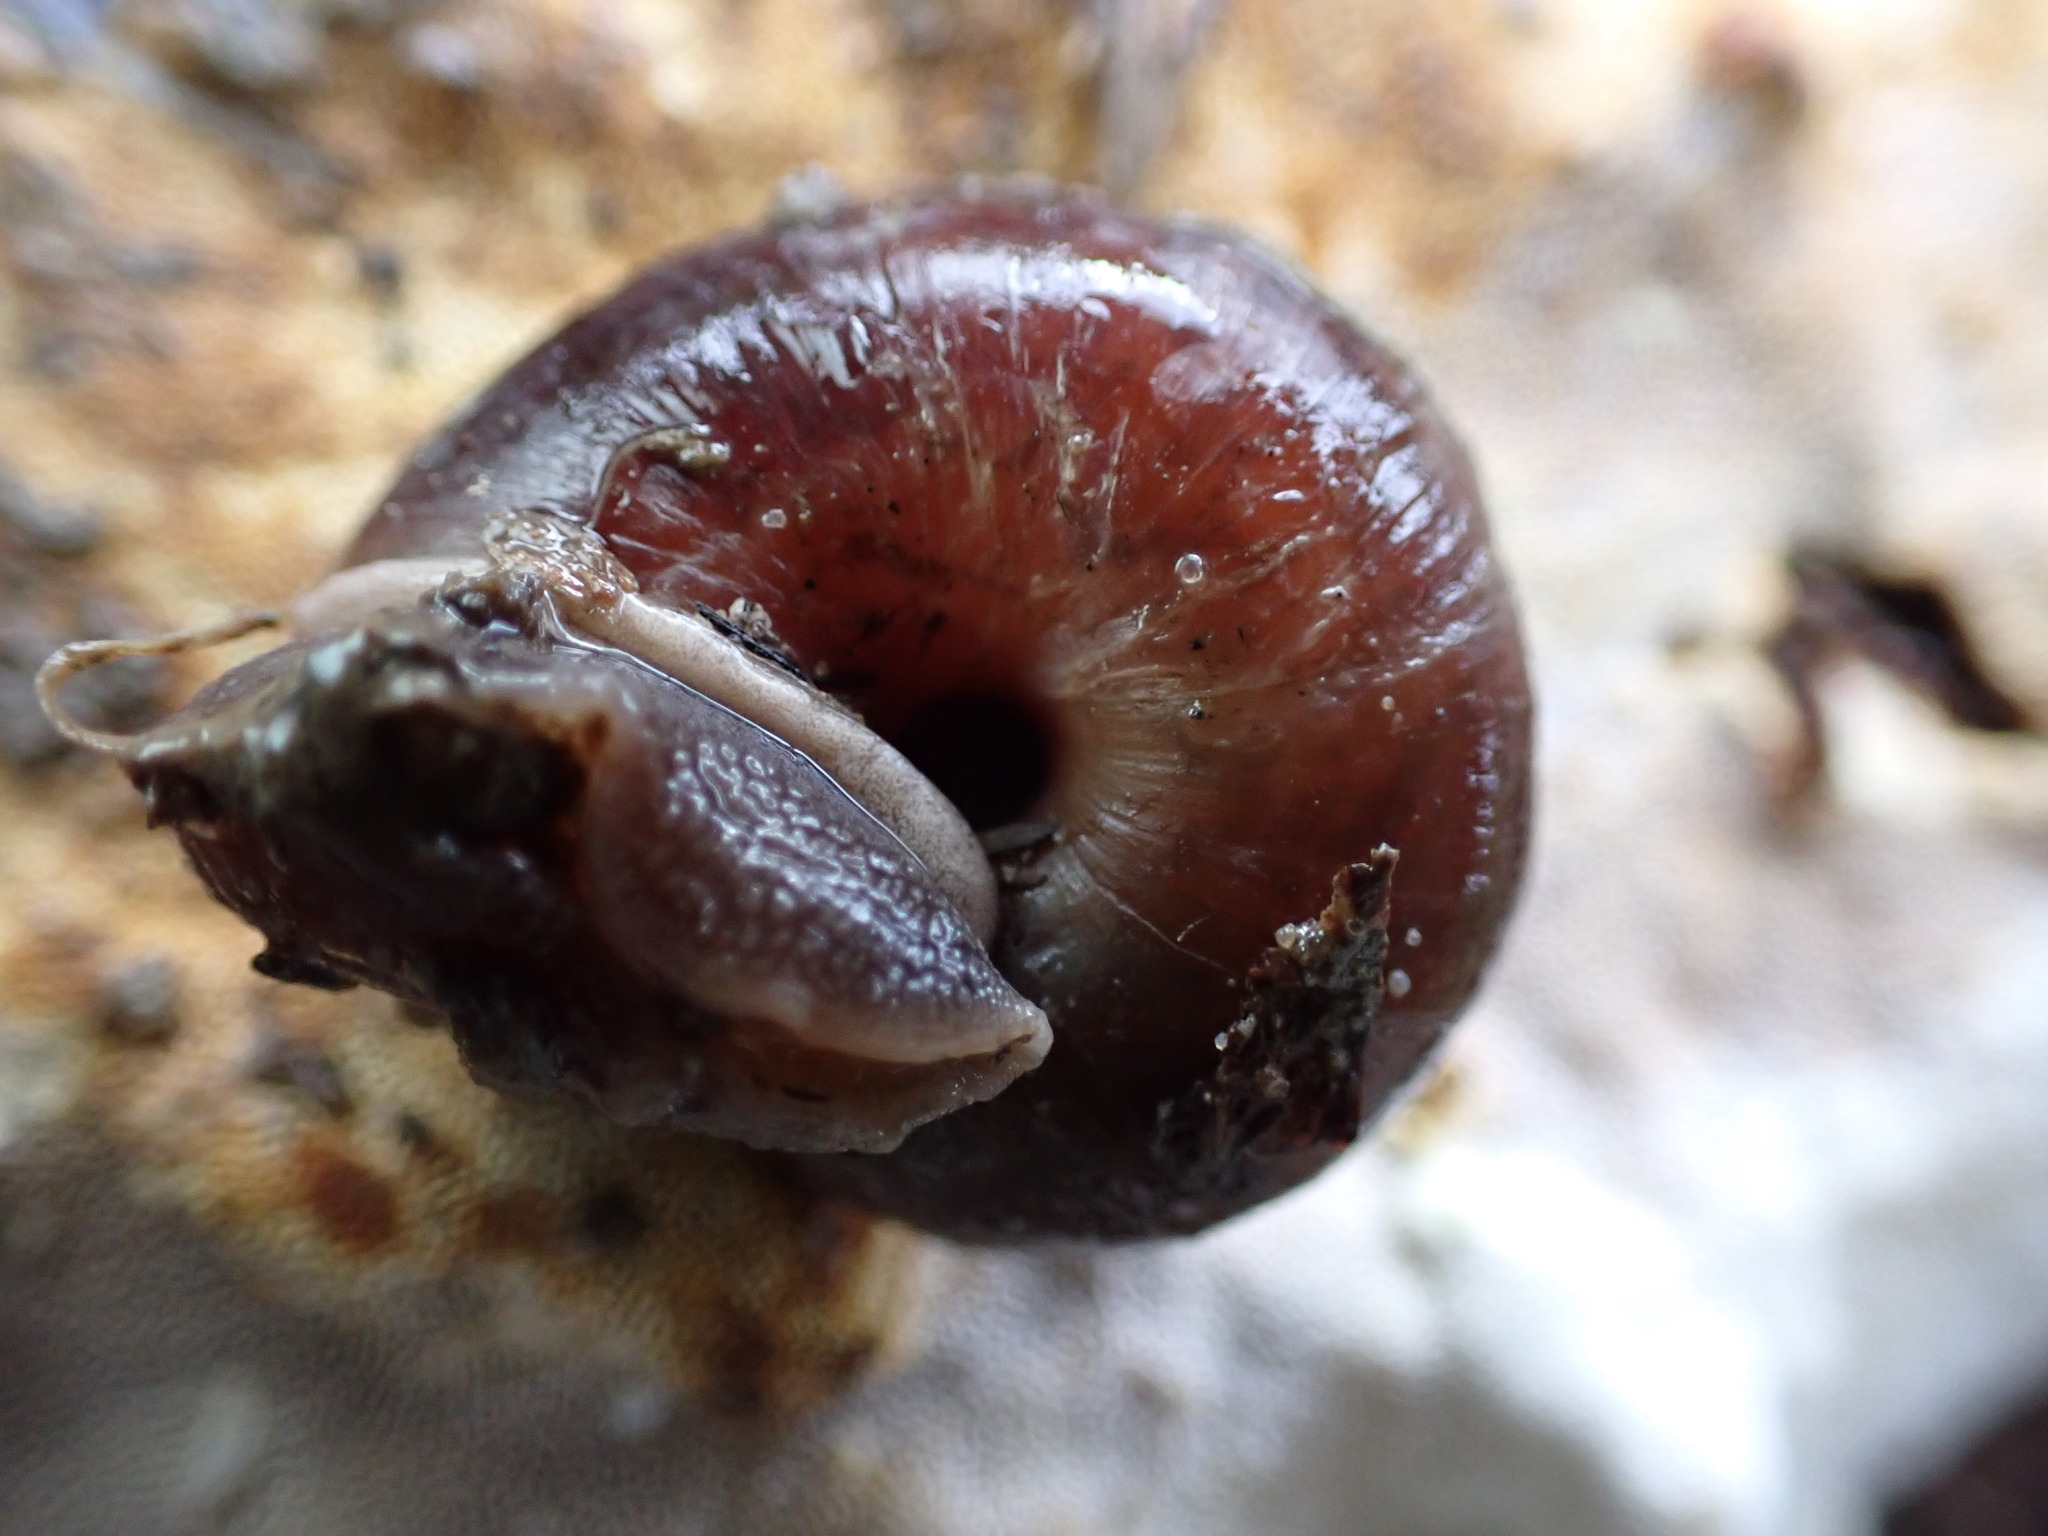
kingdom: Animalia
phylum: Mollusca
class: Gastropoda
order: Stylommatophora
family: Xanthonychidae
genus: Helminthoglypta
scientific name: Helminthoglypta umbilicata
